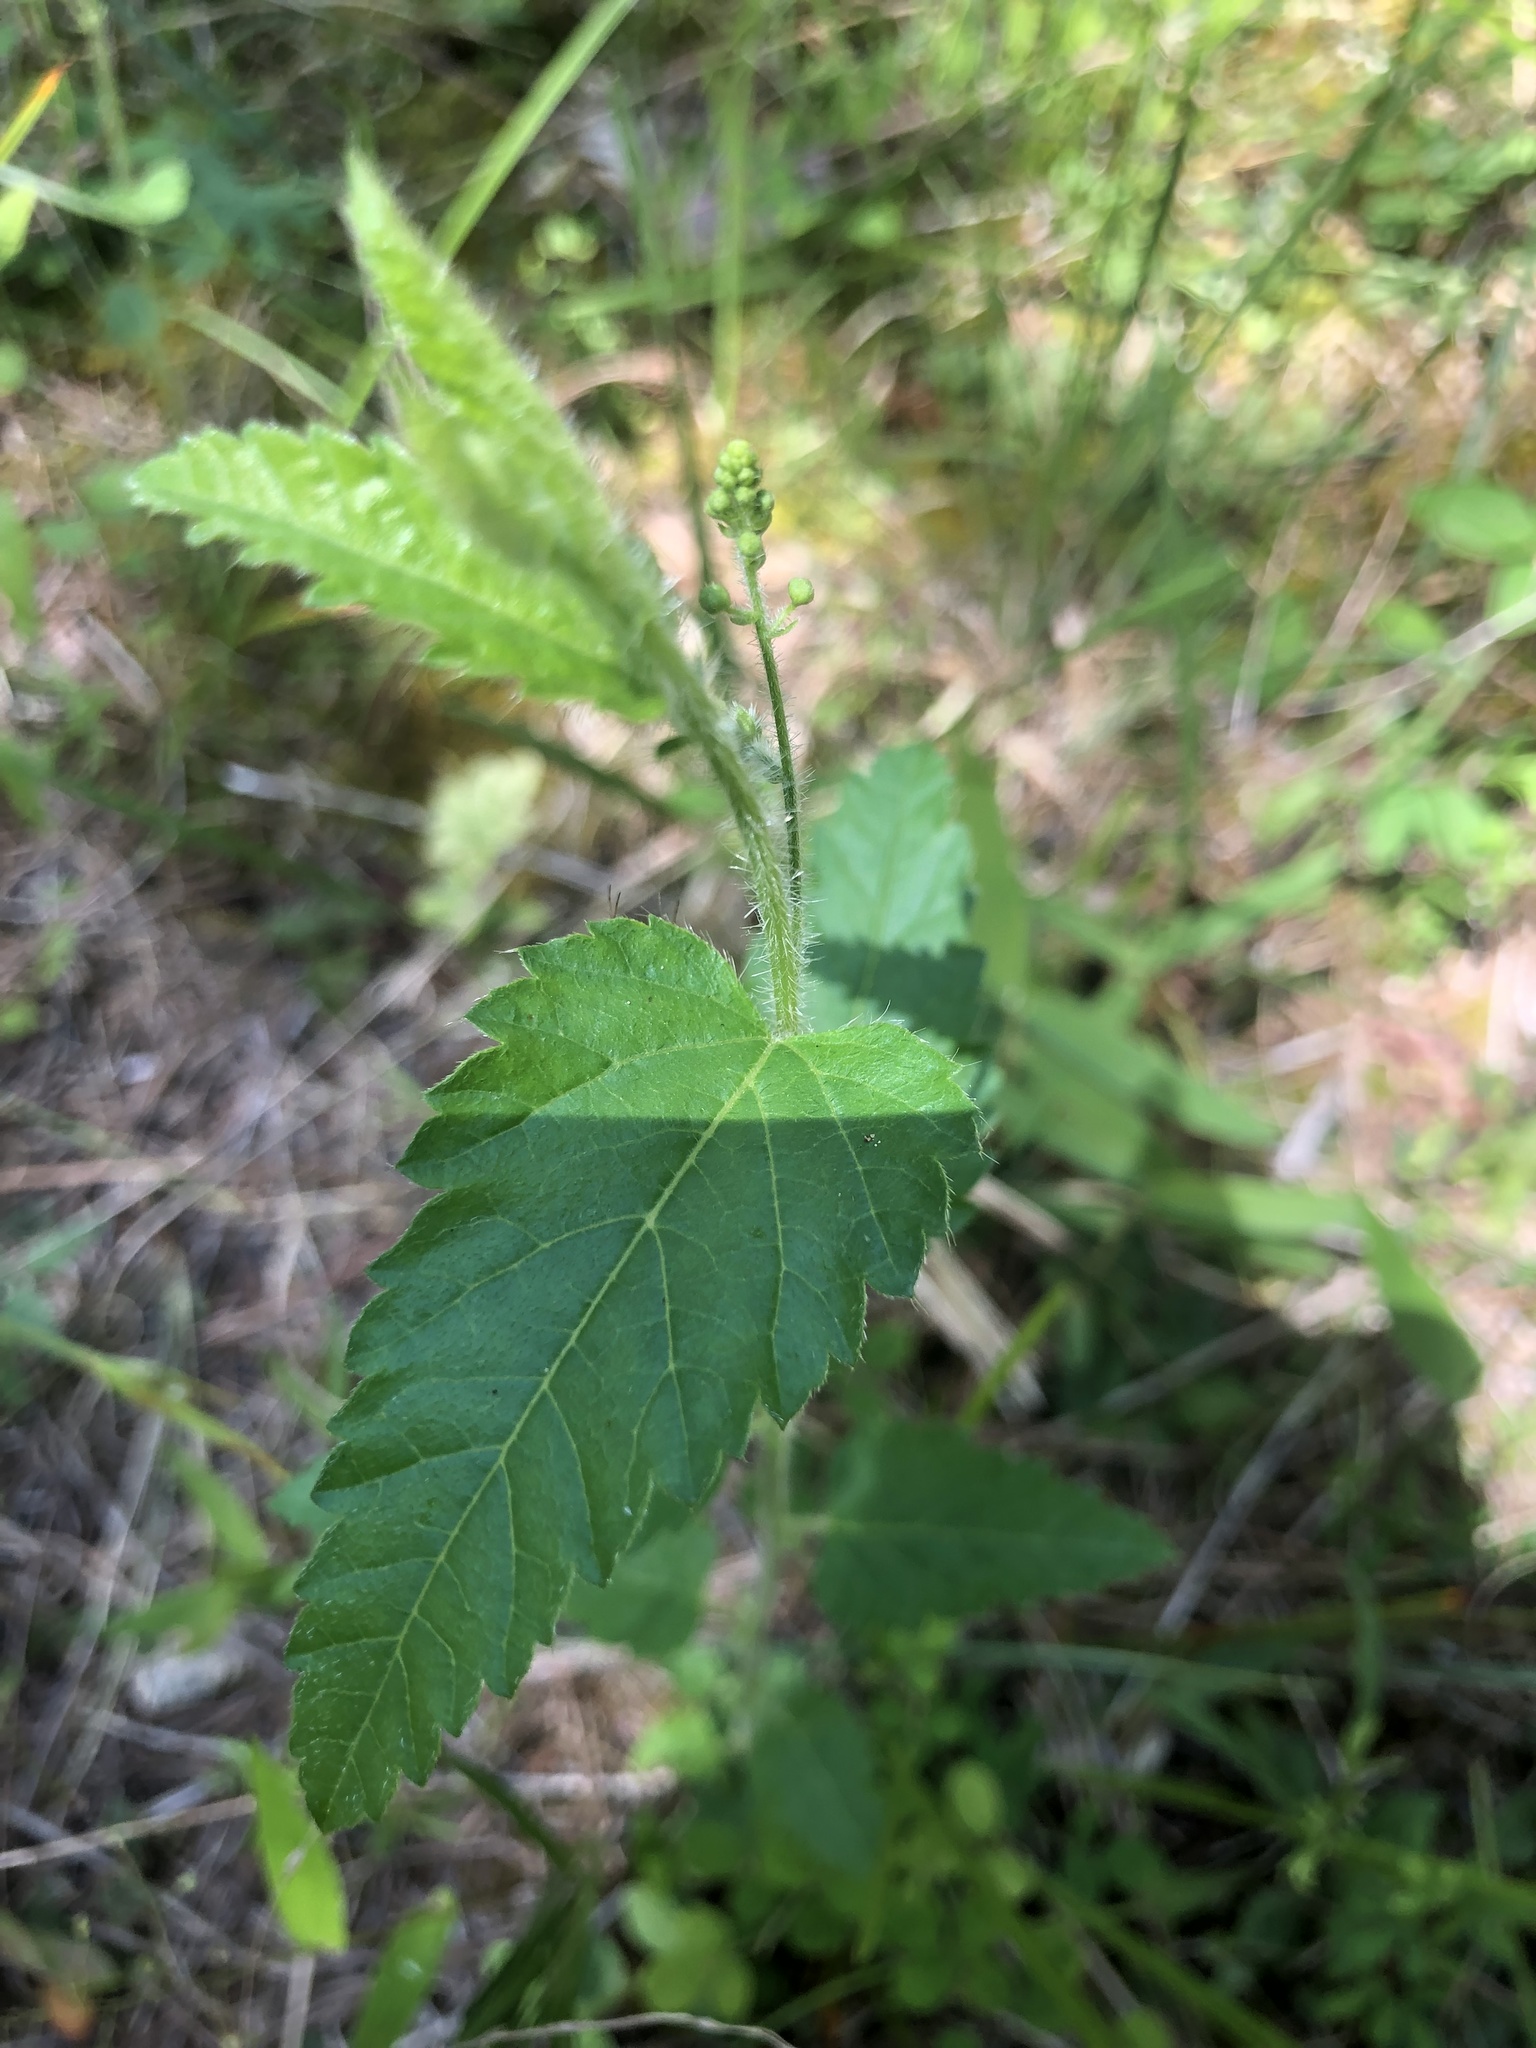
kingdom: Plantae
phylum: Tracheophyta
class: Magnoliopsida
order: Malpighiales
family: Euphorbiaceae
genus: Tragia
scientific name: Tragia urticifolia
